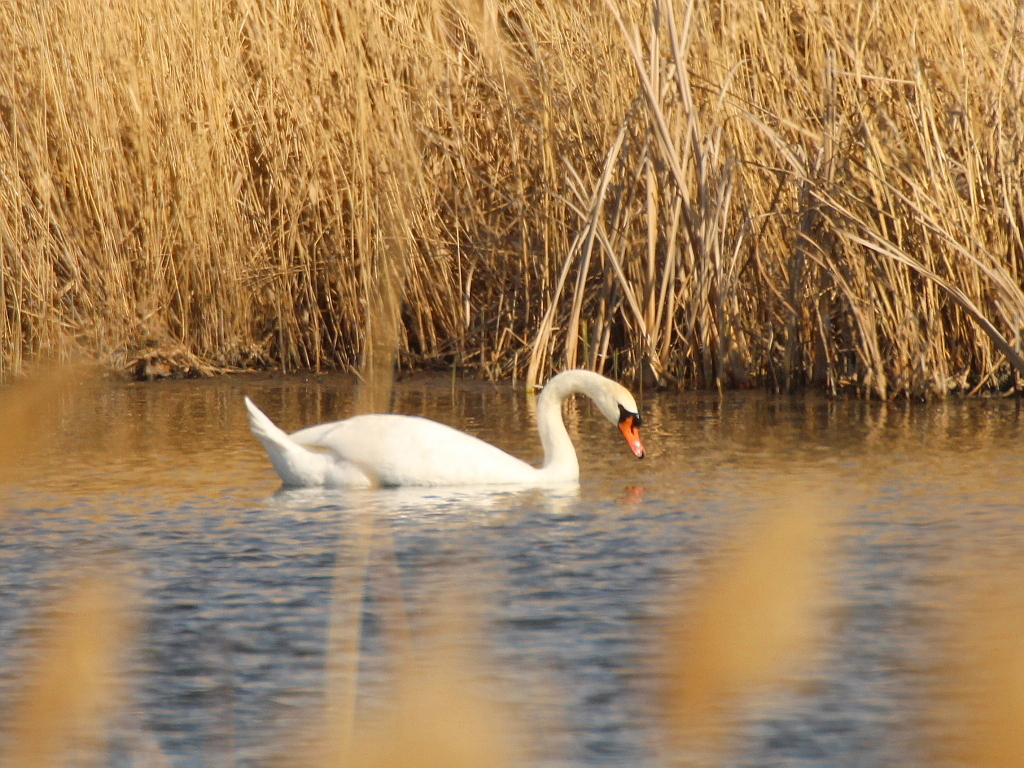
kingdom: Animalia
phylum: Chordata
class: Aves
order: Anseriformes
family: Anatidae
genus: Cygnus
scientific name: Cygnus olor
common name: Mute swan
